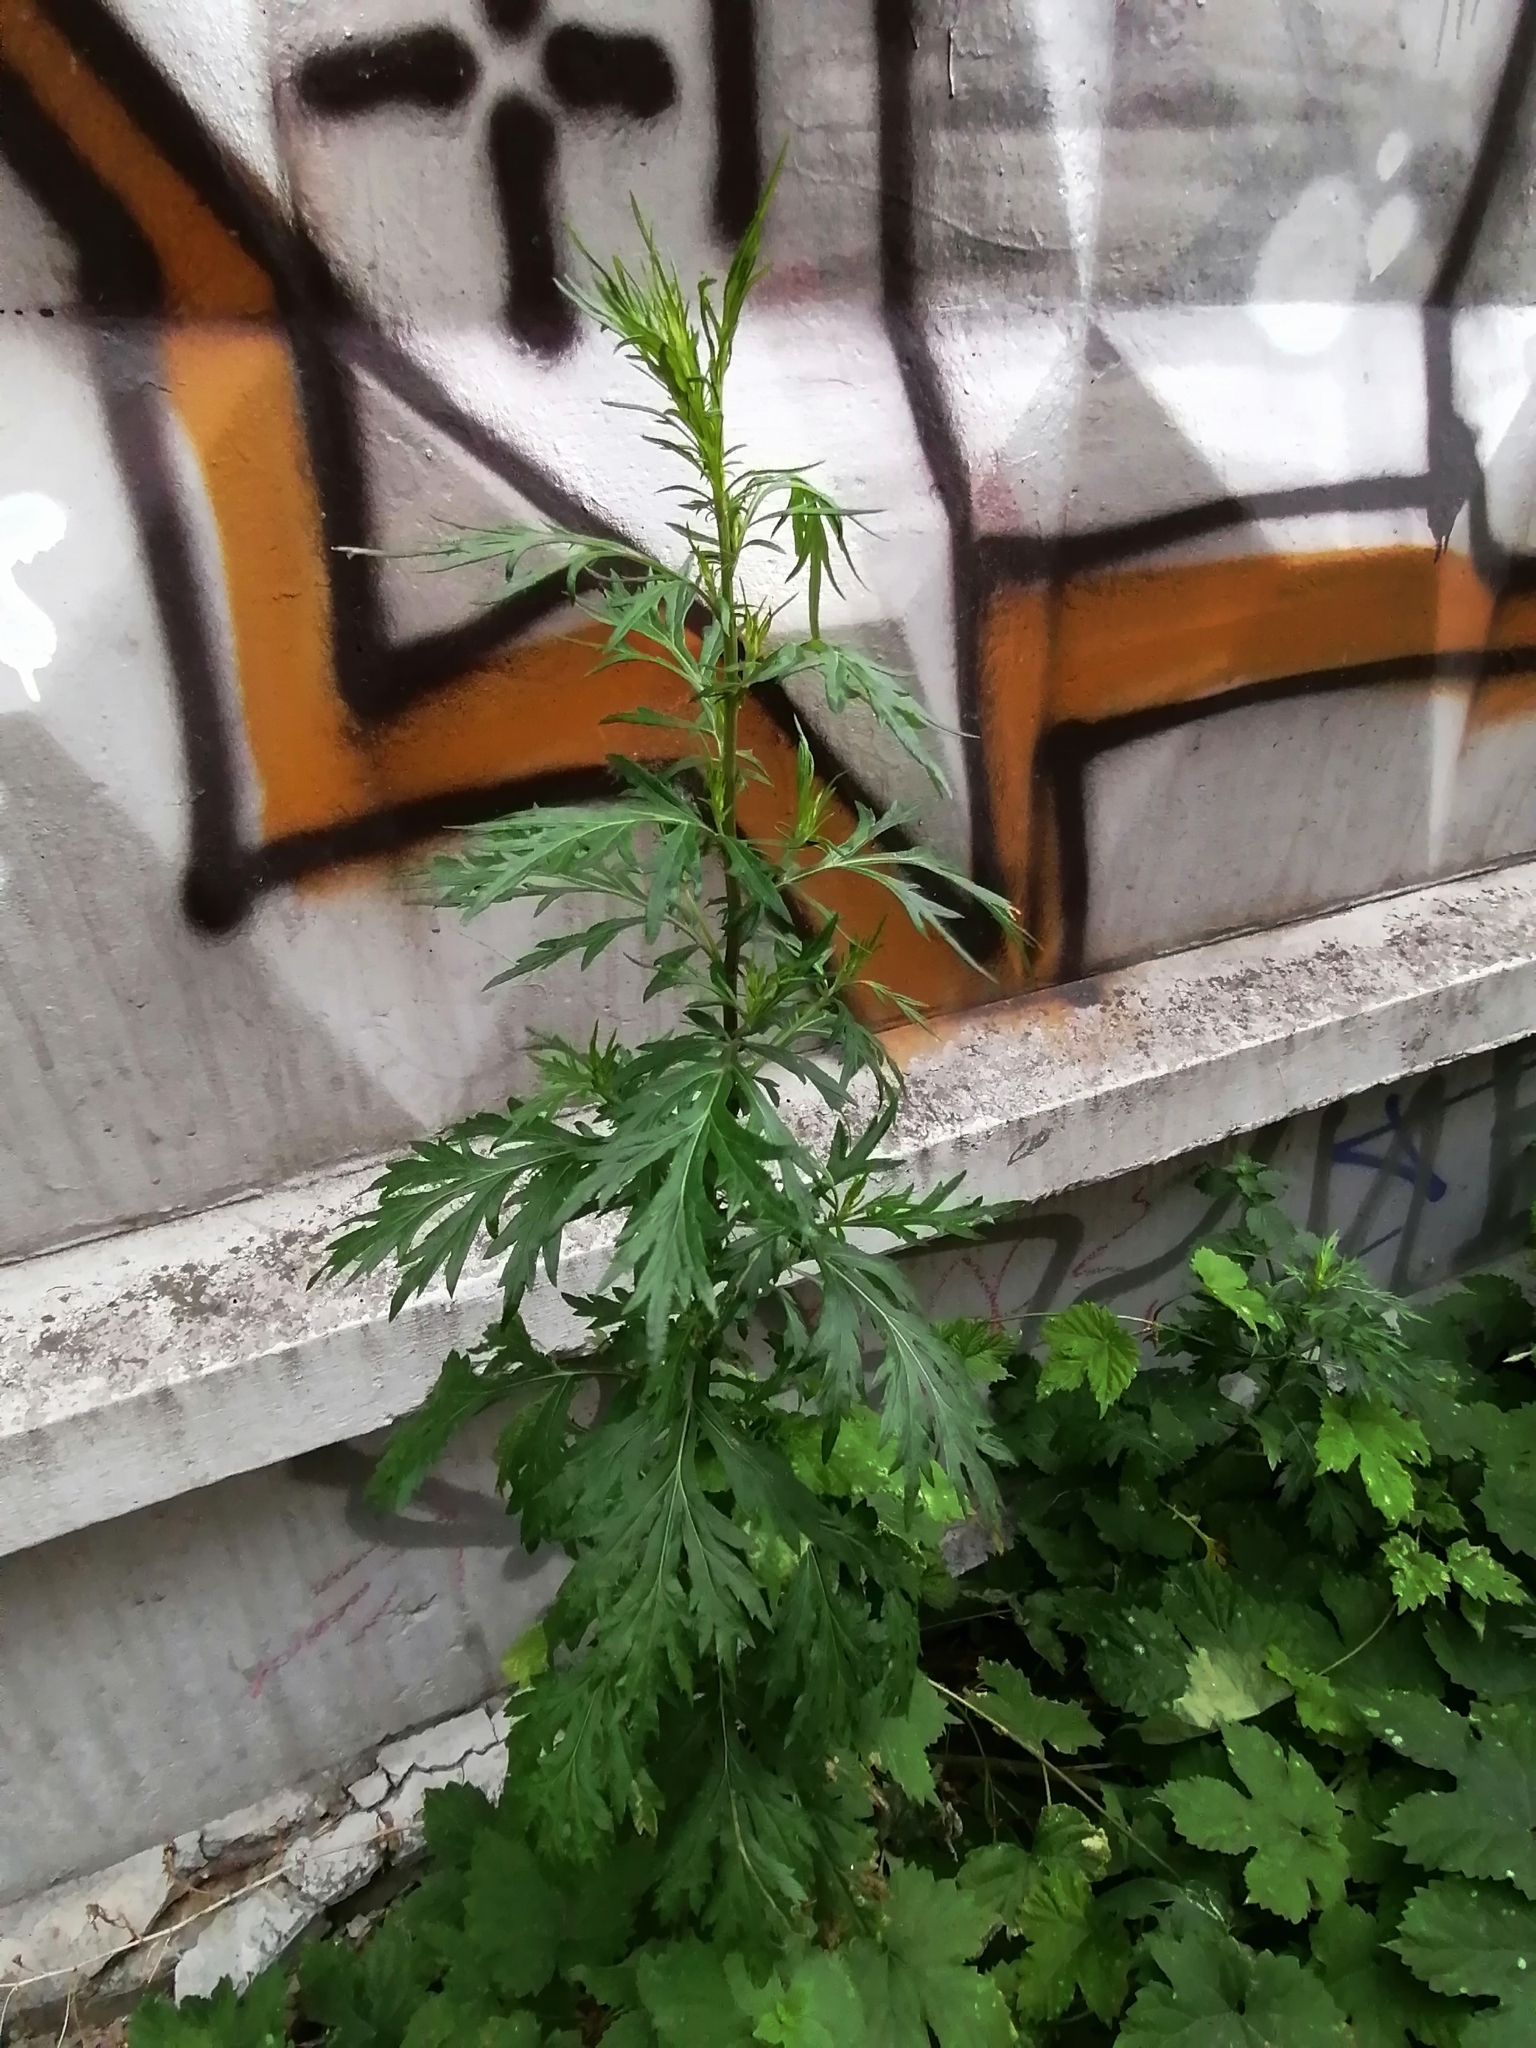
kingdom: Plantae
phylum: Tracheophyta
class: Magnoliopsida
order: Asterales
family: Asteraceae
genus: Artemisia
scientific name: Artemisia vulgaris
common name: Mugwort
